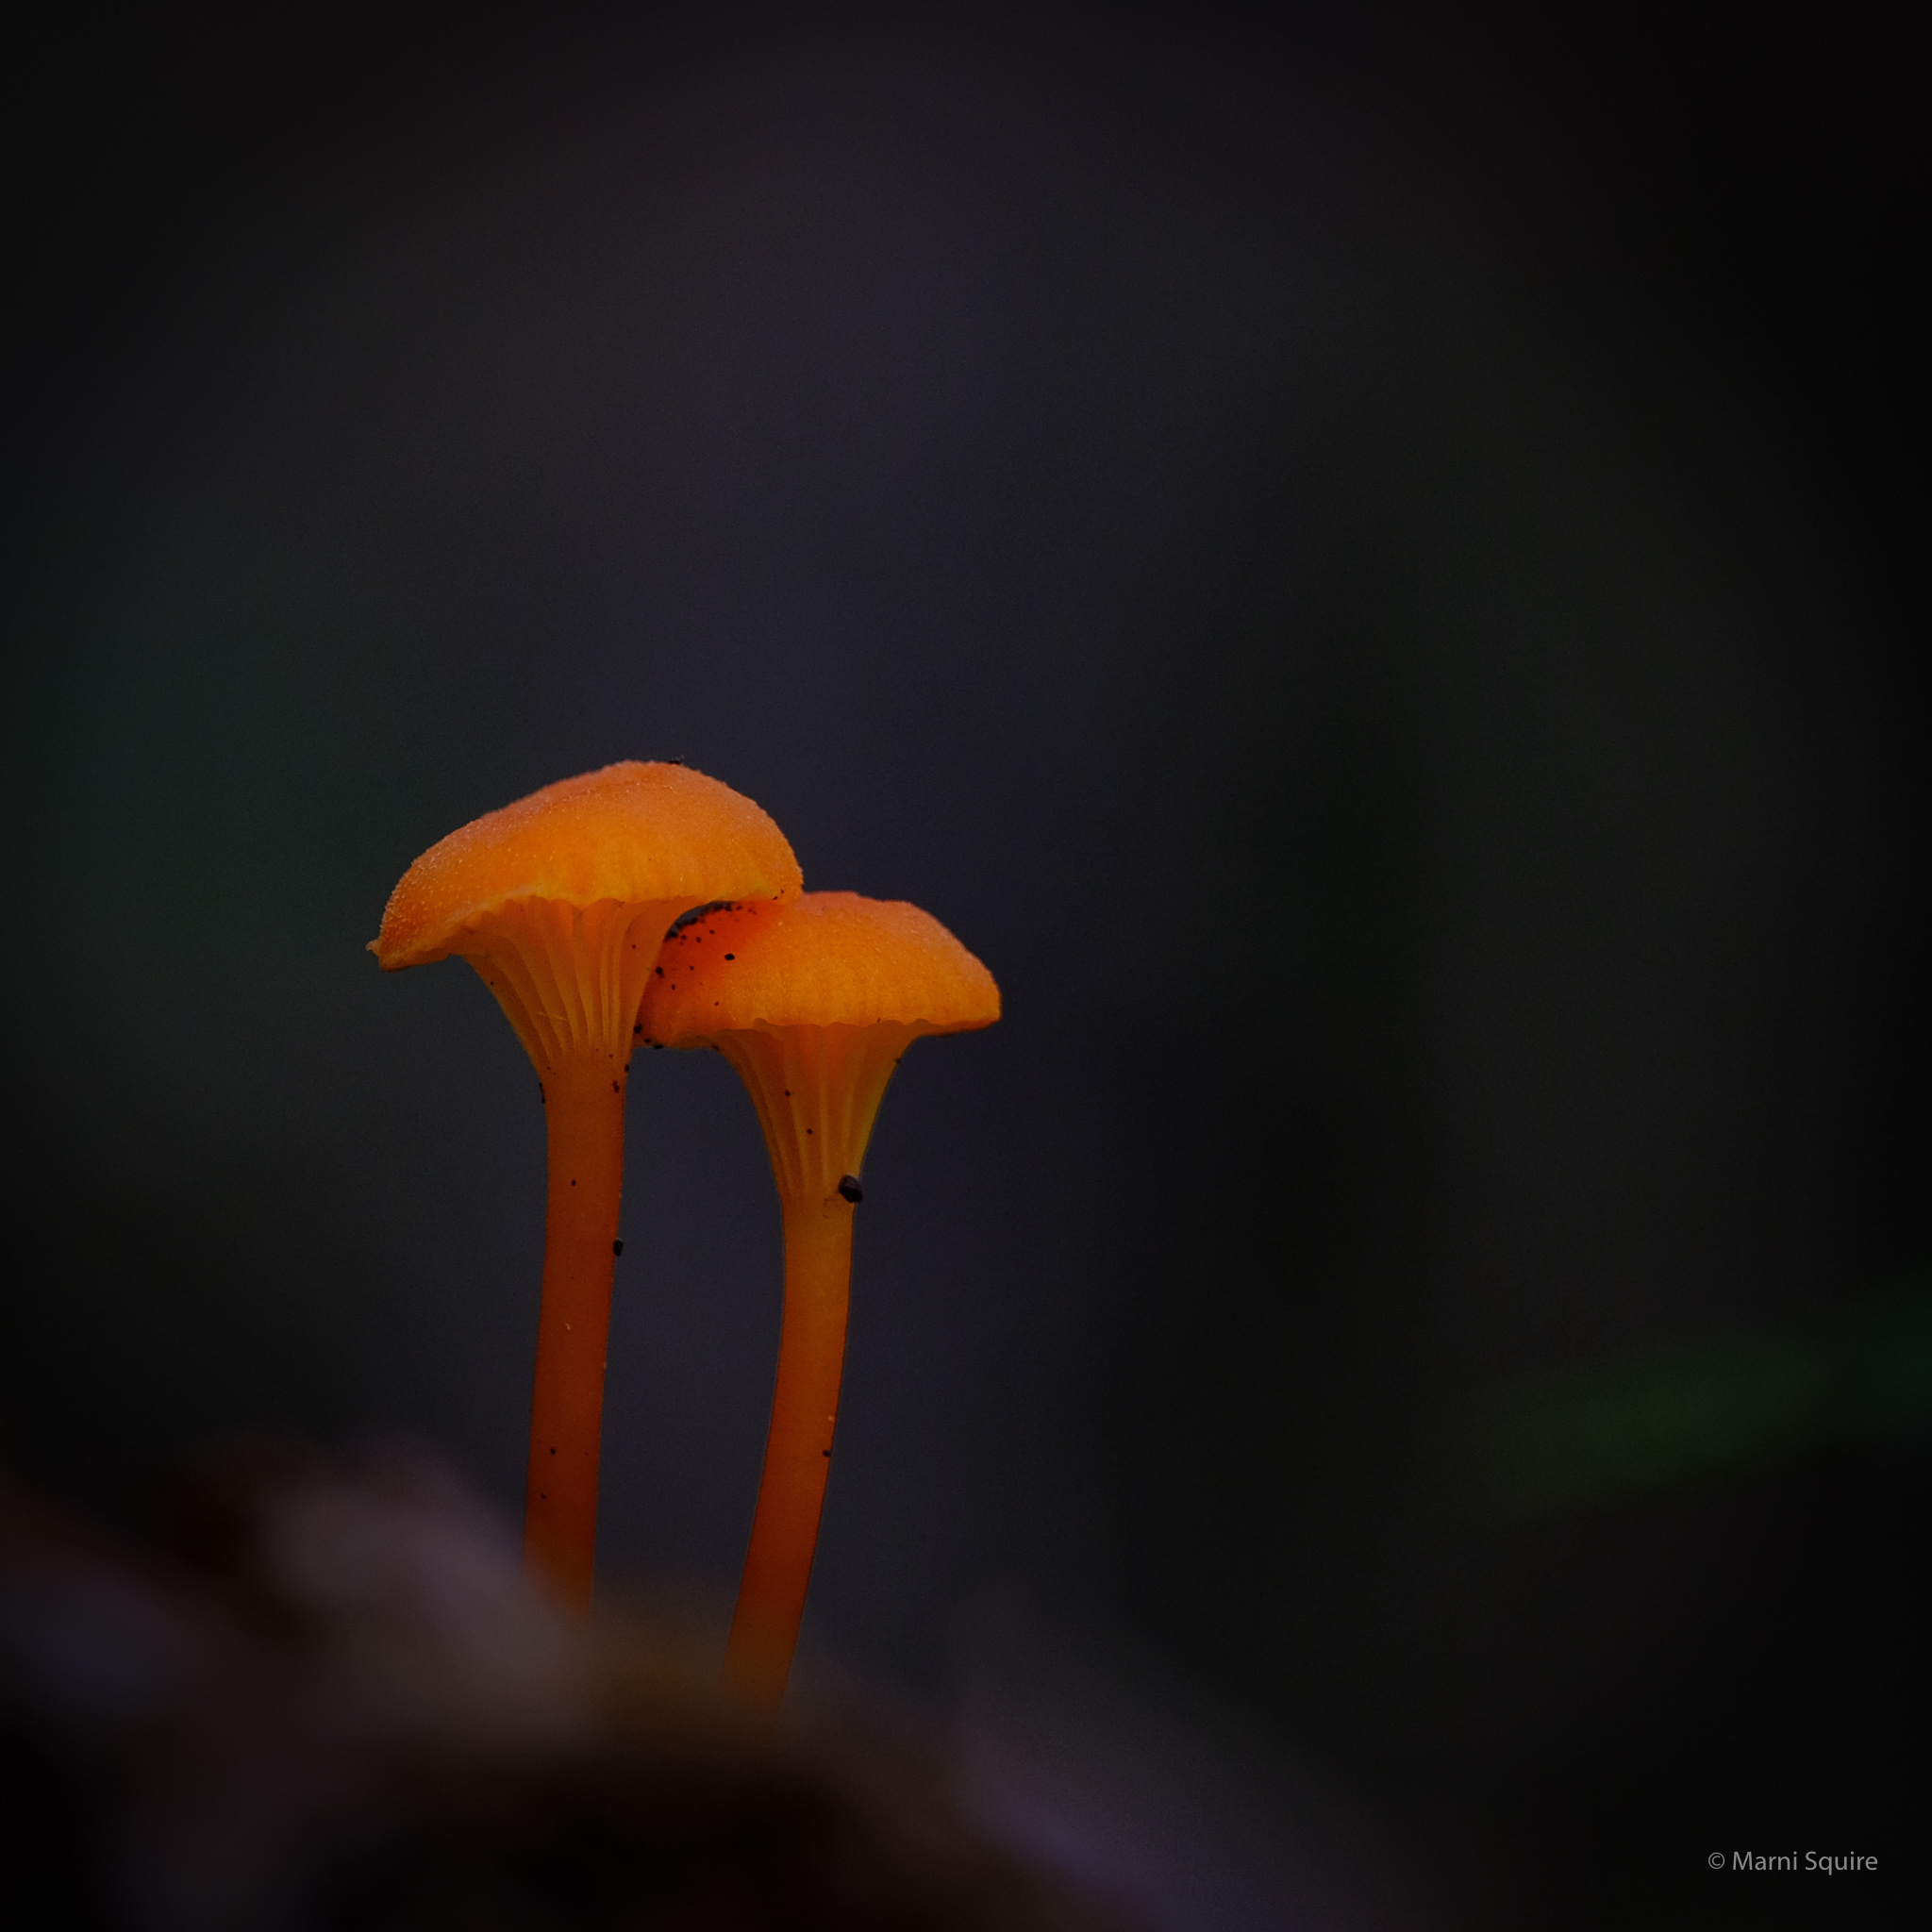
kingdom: Fungi
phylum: Basidiomycota
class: Agaricomycetes
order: Agaricales
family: Hygrophoraceae
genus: Hygrocybe
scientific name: Hygrocybe cantharellus
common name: Goblet waxcap
